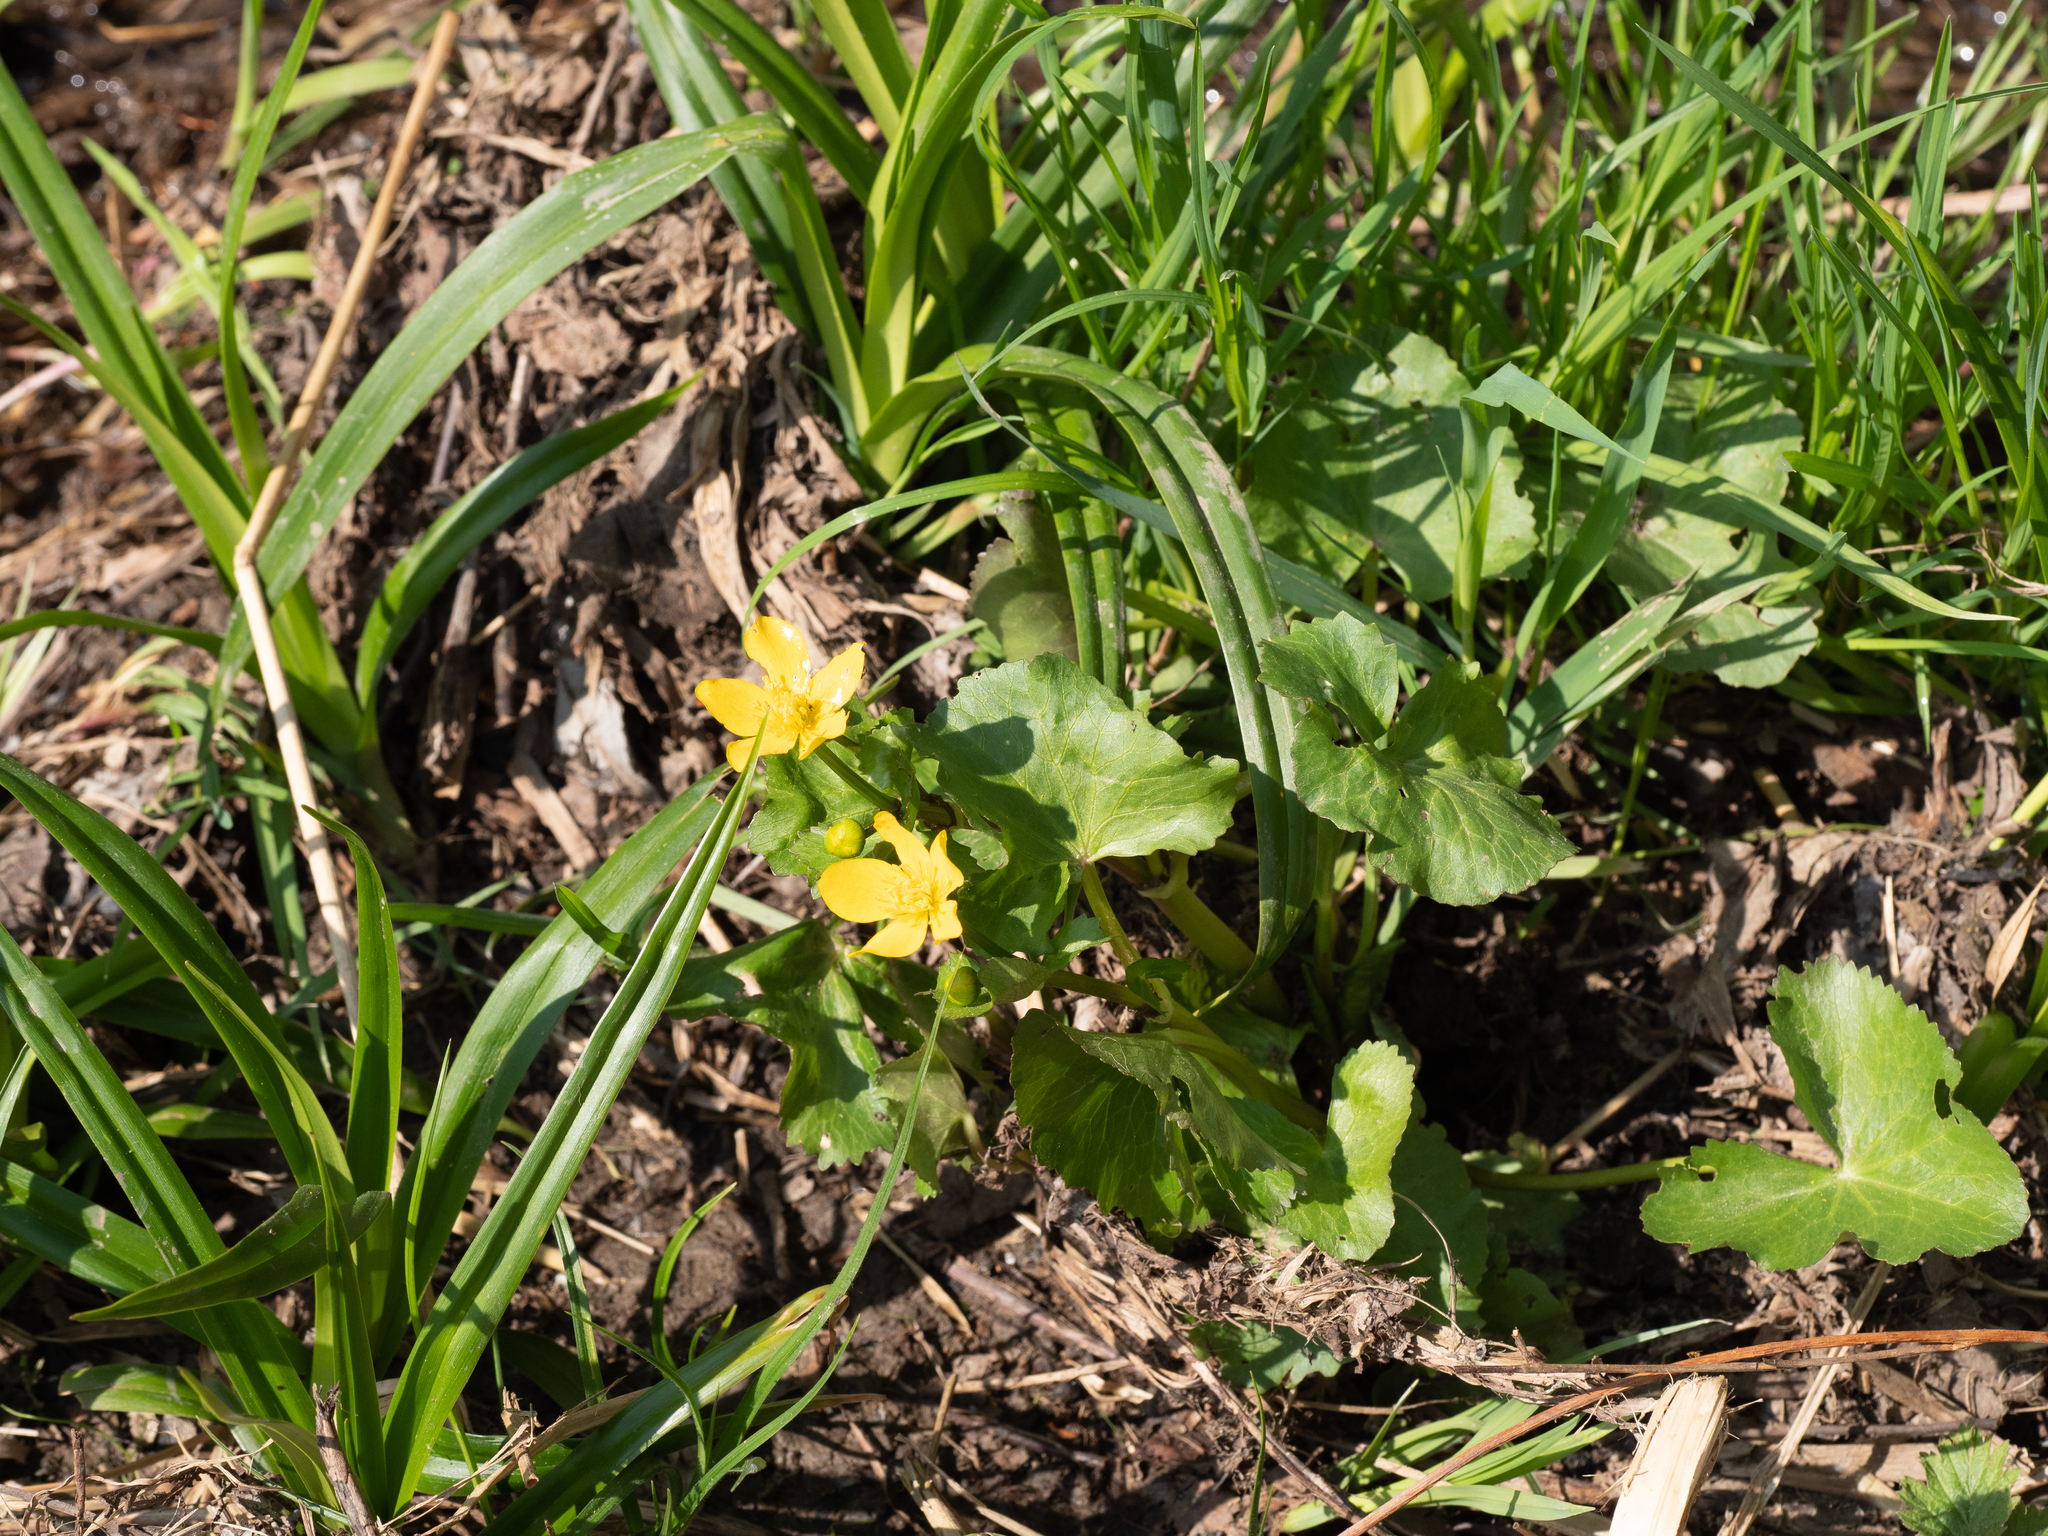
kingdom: Plantae
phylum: Tracheophyta
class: Magnoliopsida
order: Ranunculales
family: Ranunculaceae
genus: Caltha
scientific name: Caltha palustris
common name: Marsh marigold
